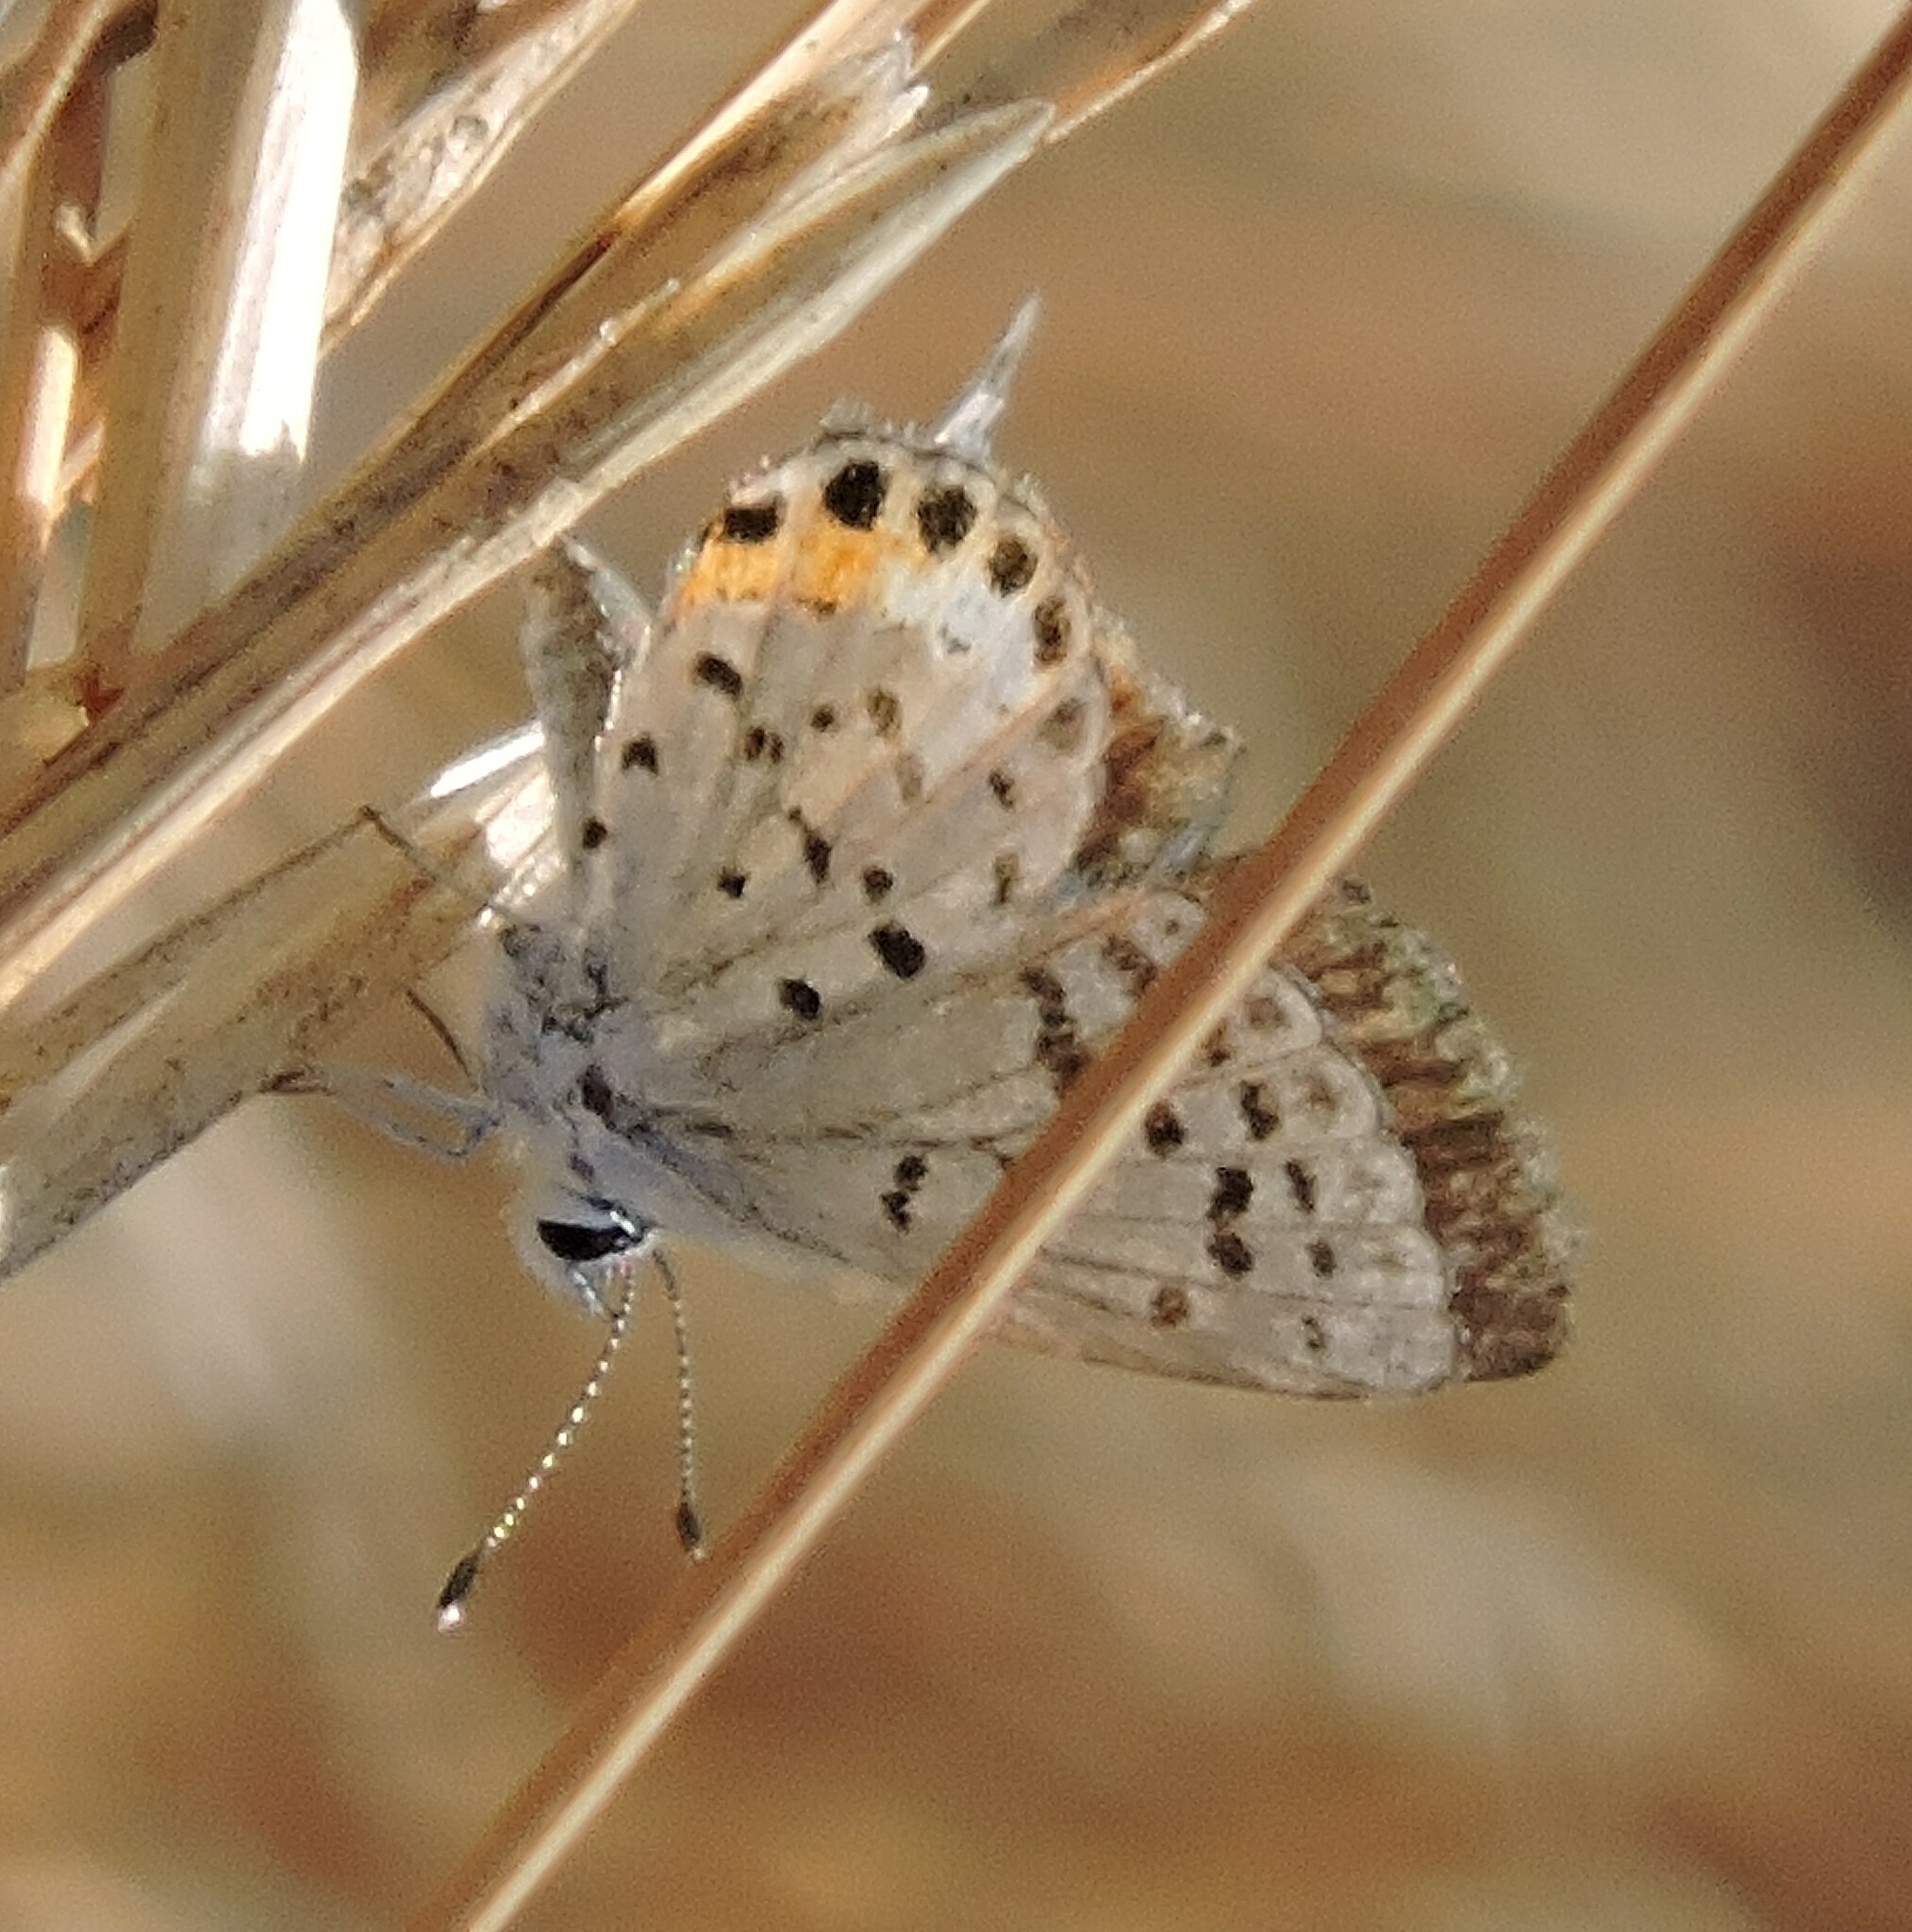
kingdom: Animalia
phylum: Arthropoda
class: Insecta
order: Lepidoptera
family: Lycaenidae
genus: Icaricia
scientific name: Icaricia acmon
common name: Acmon blue
